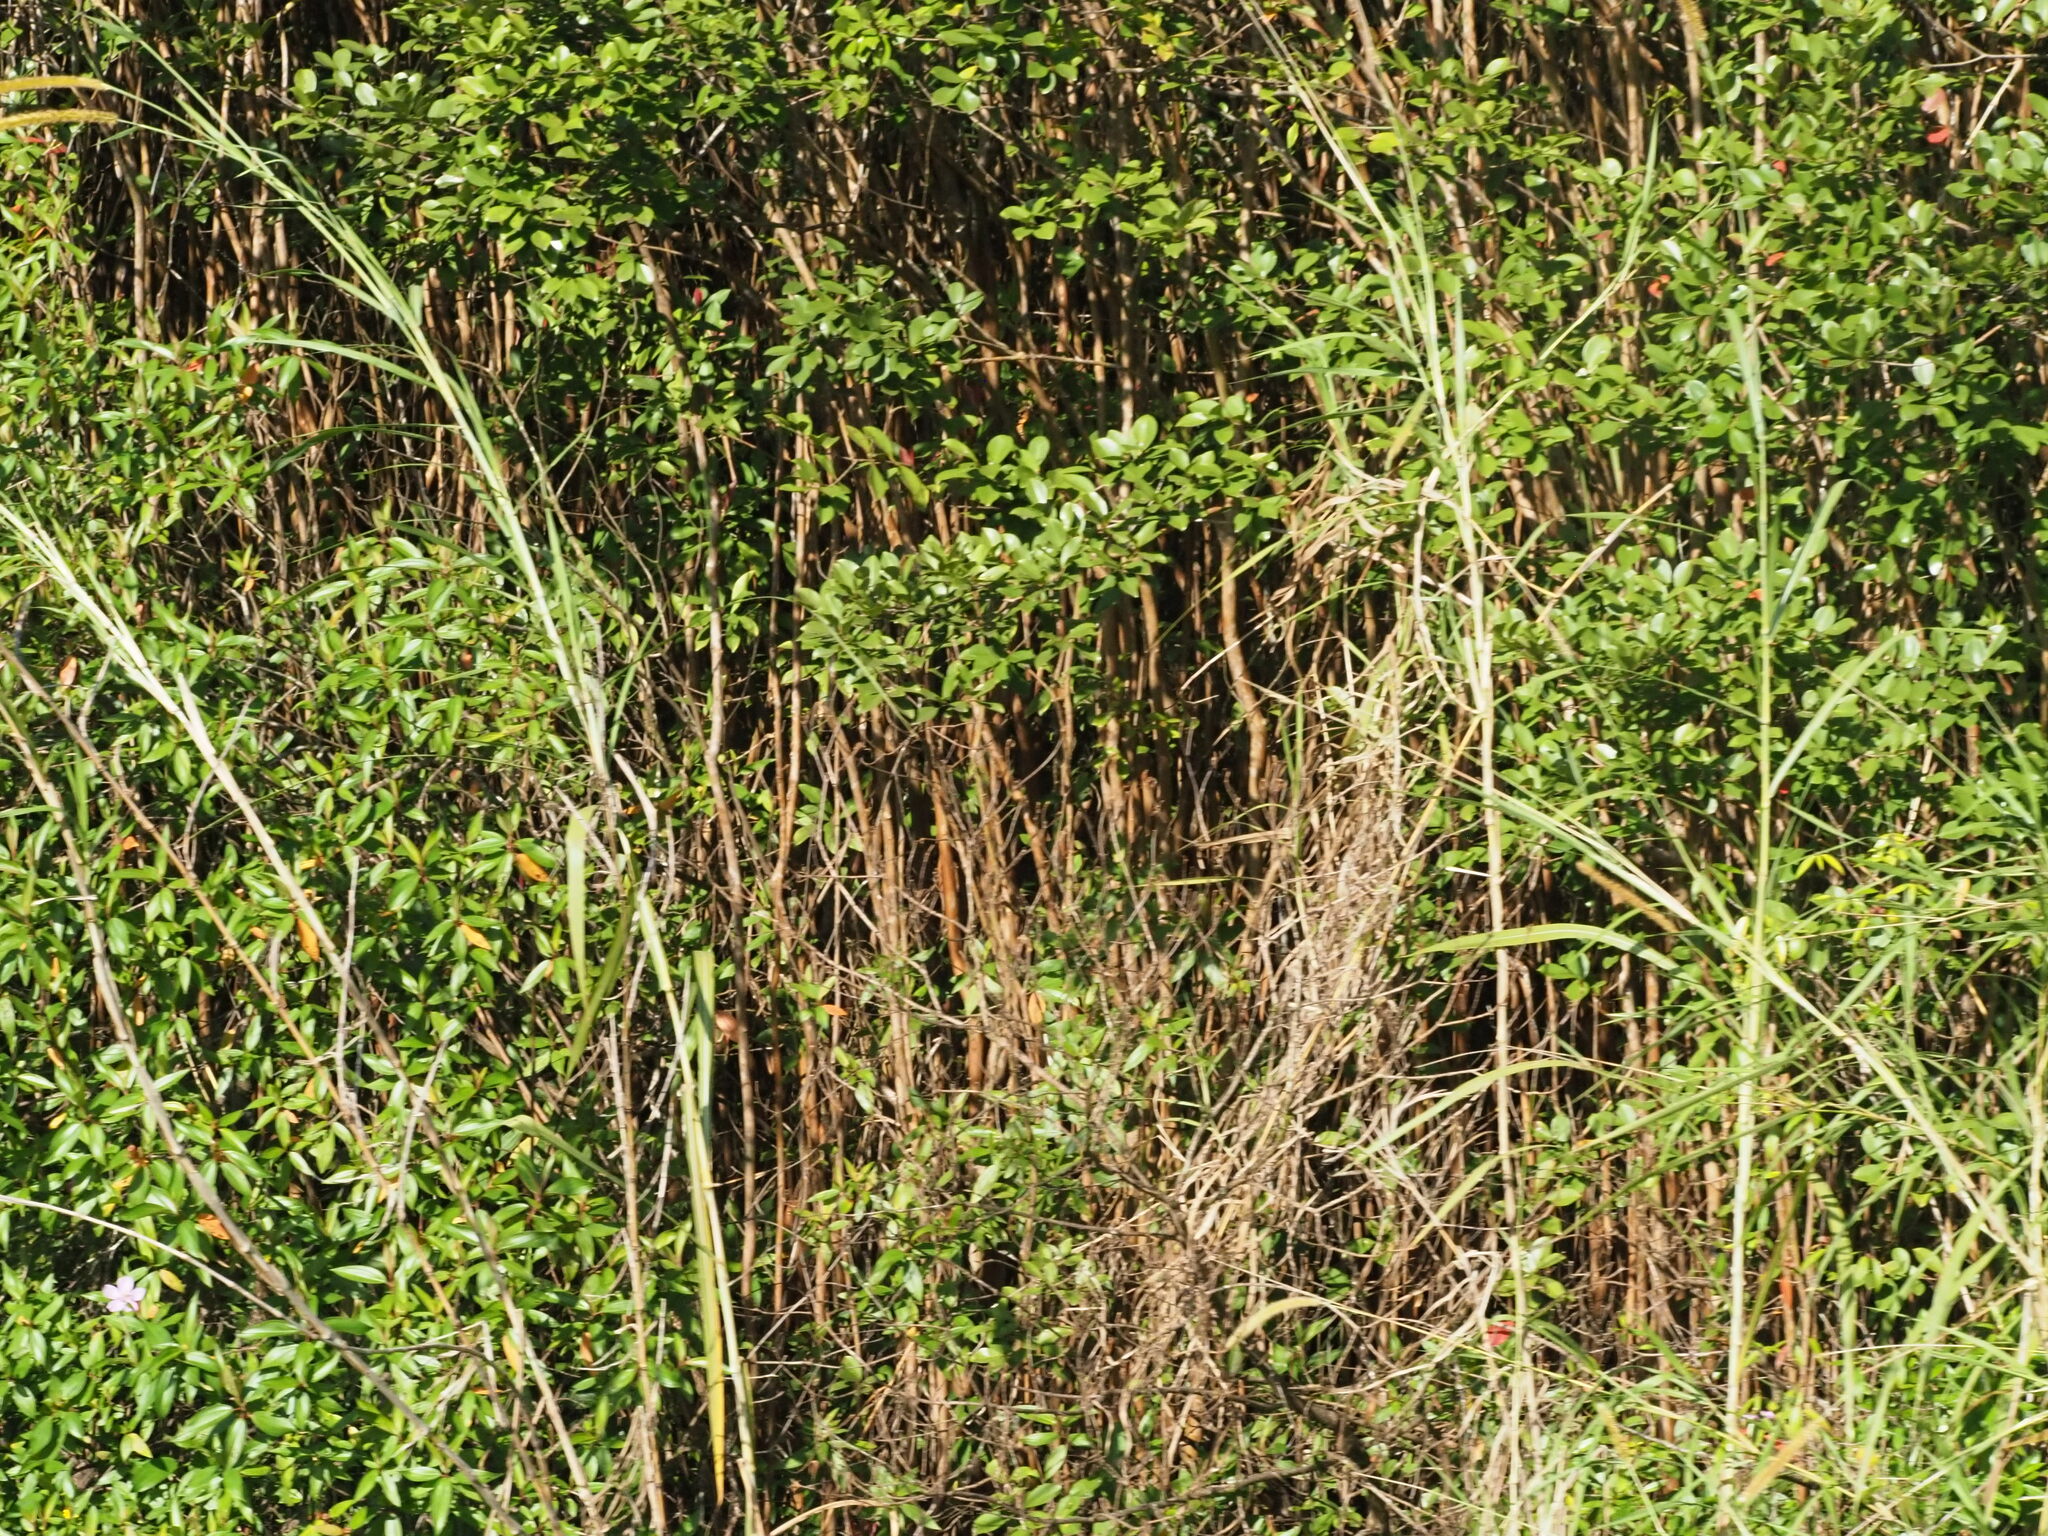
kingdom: Plantae
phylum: Tracheophyta
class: Liliopsida
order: Poales
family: Poaceae
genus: Cenchrus
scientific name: Cenchrus purpureus
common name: Elephant grass
